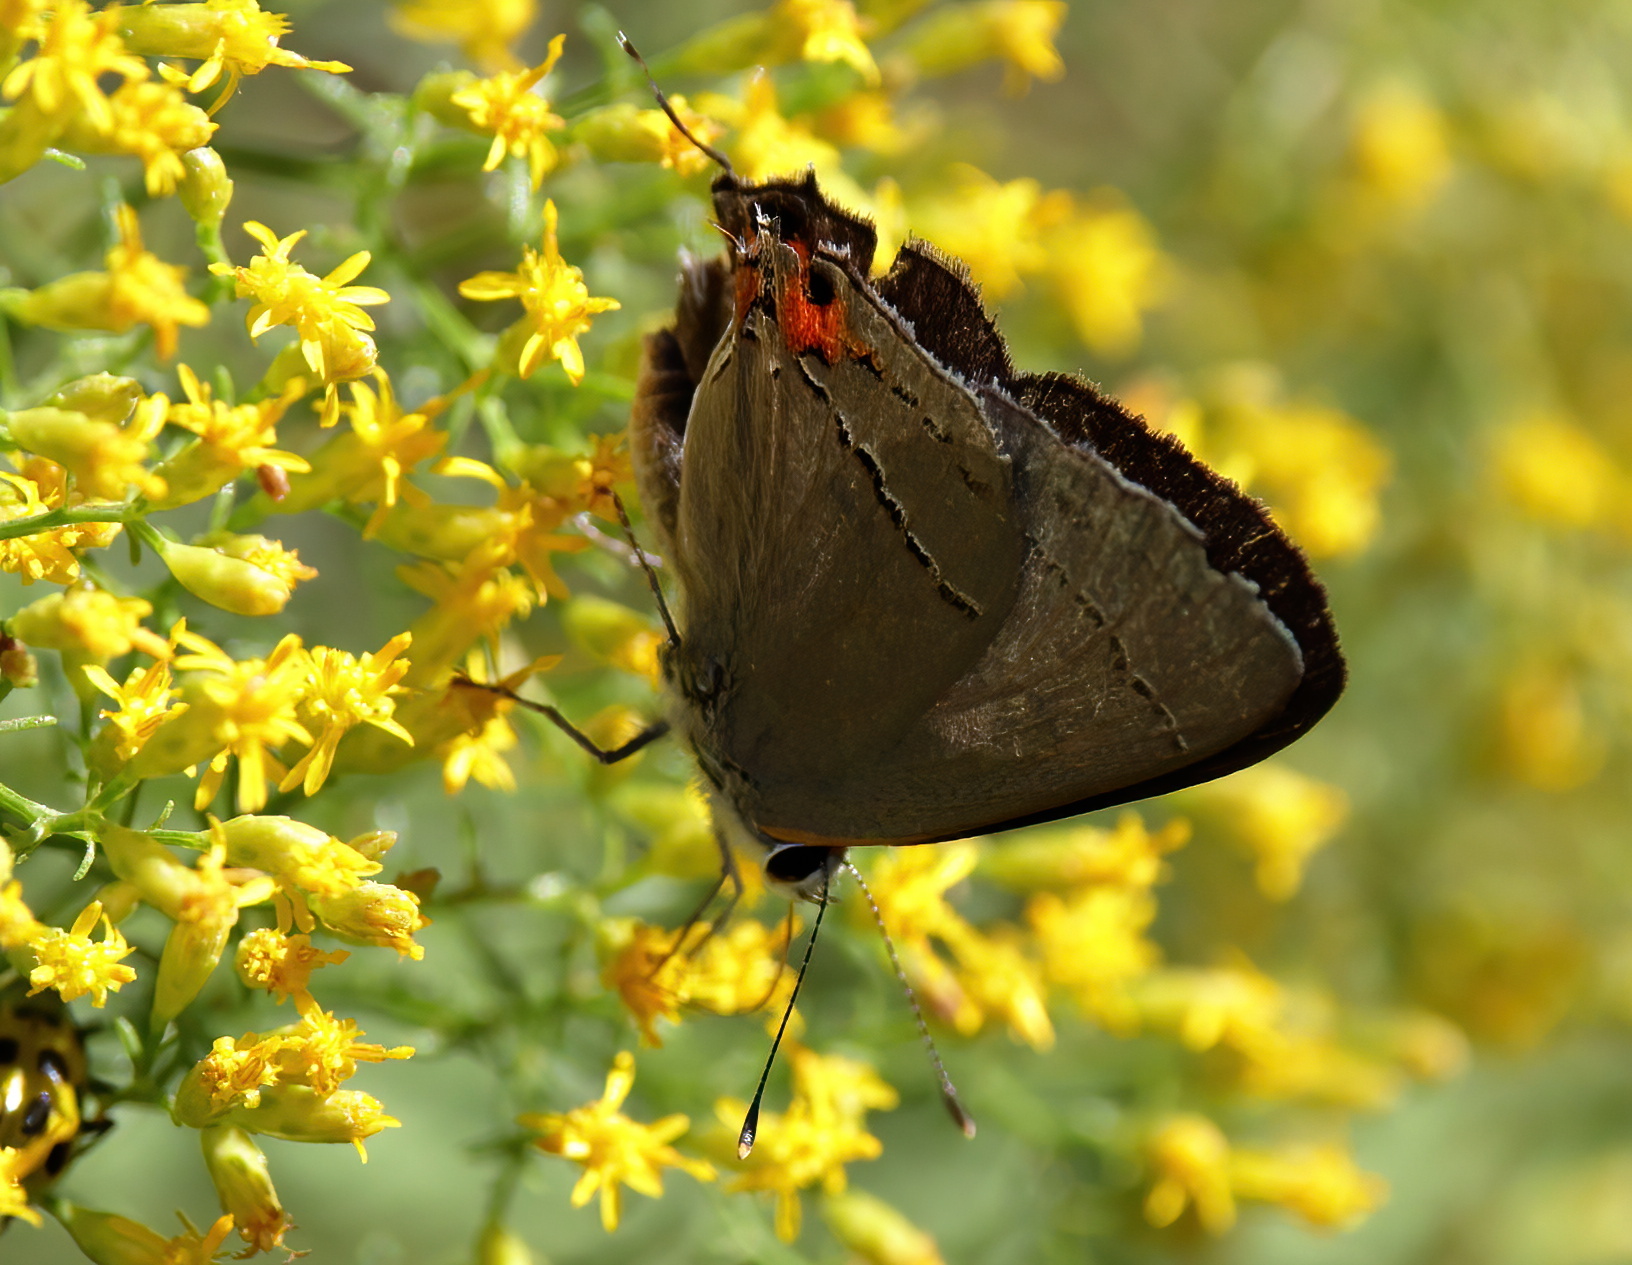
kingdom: Animalia
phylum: Arthropoda
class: Insecta
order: Lepidoptera
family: Lycaenidae
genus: Strymon
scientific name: Strymon melinus
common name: Gray hairstreak
